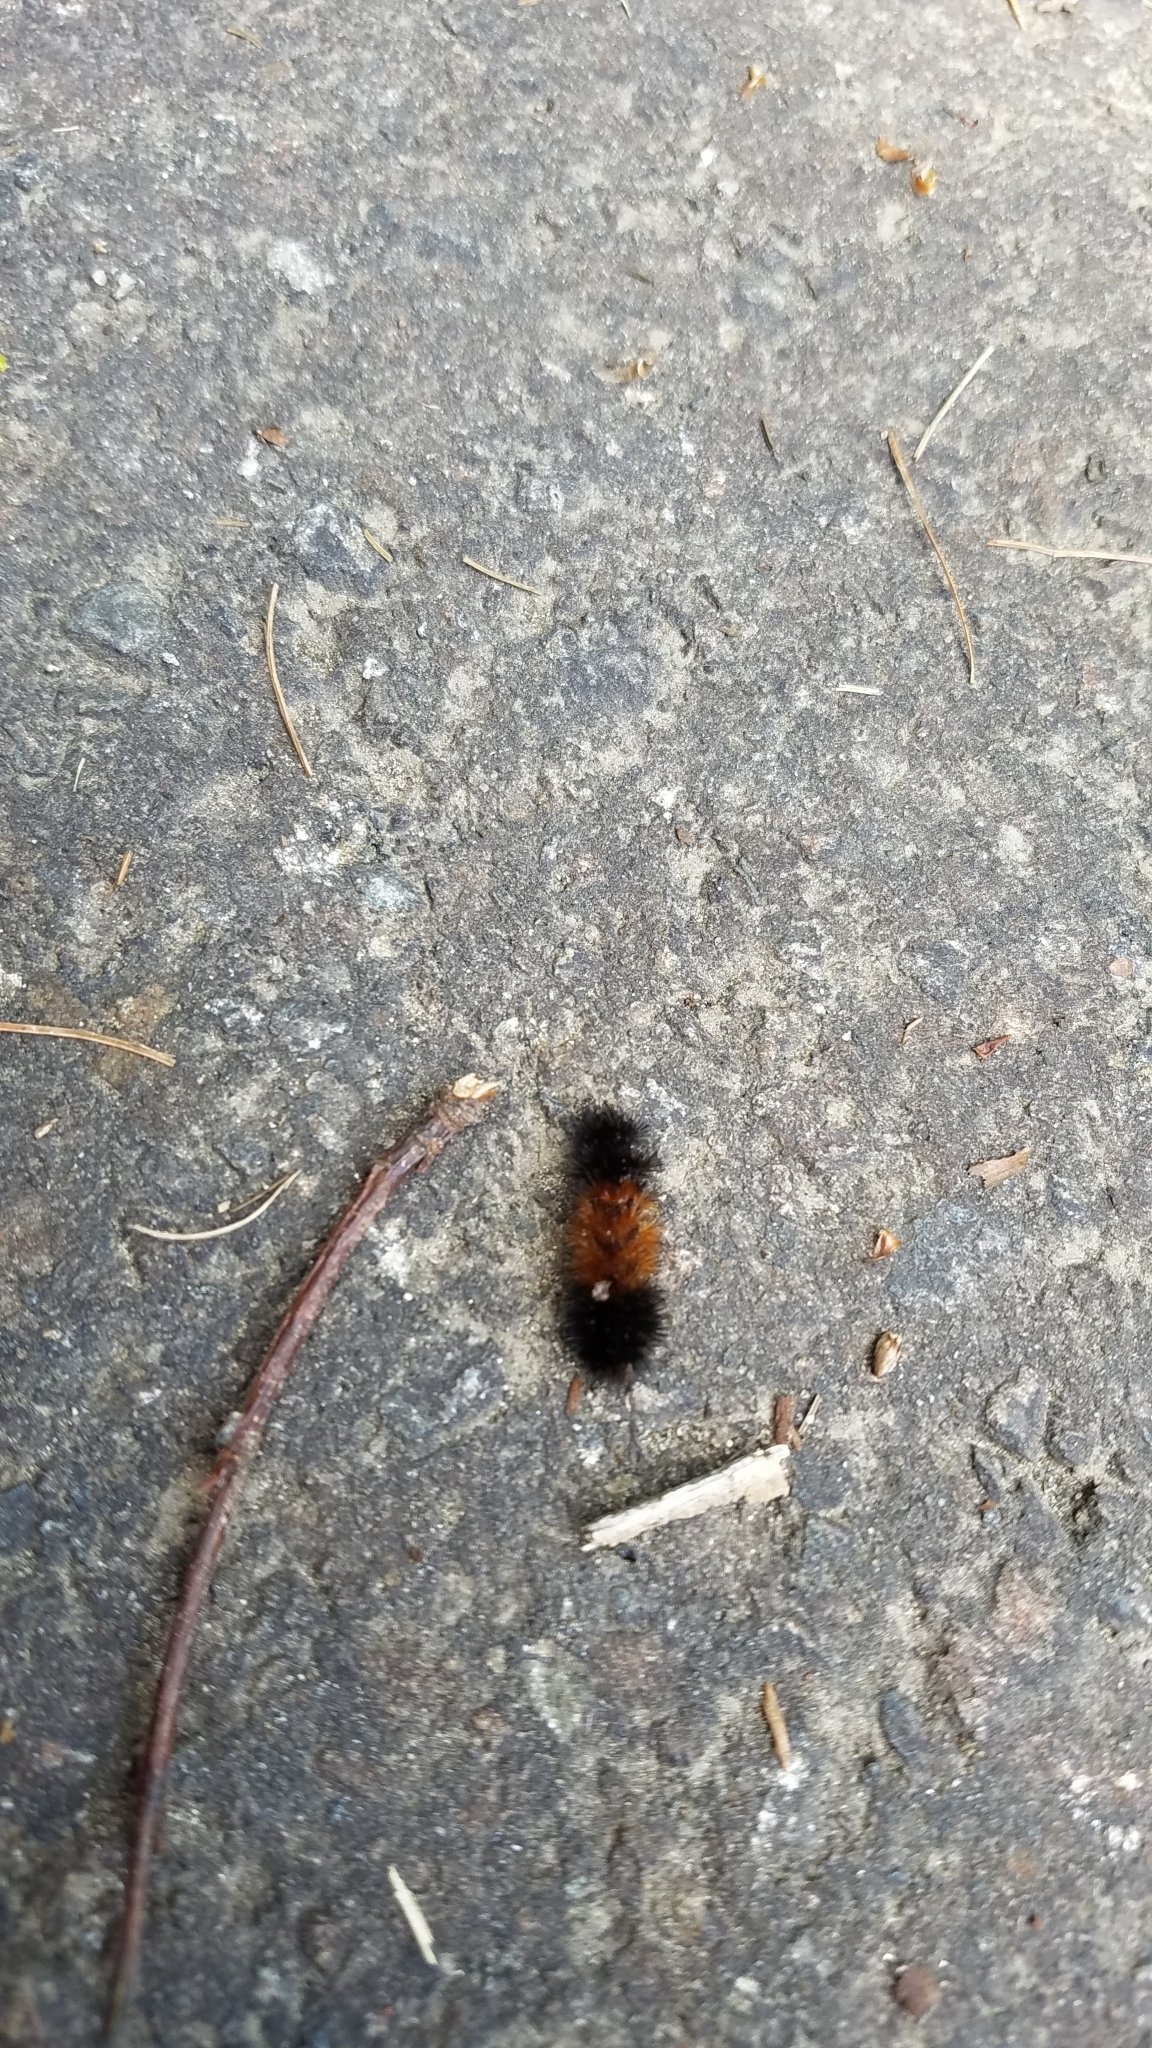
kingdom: Plantae
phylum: Tracheophyta
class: Magnoliopsida
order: Solanales
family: Solanaceae
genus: Solanum
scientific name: Solanum carolinense
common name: Horse-nettle
